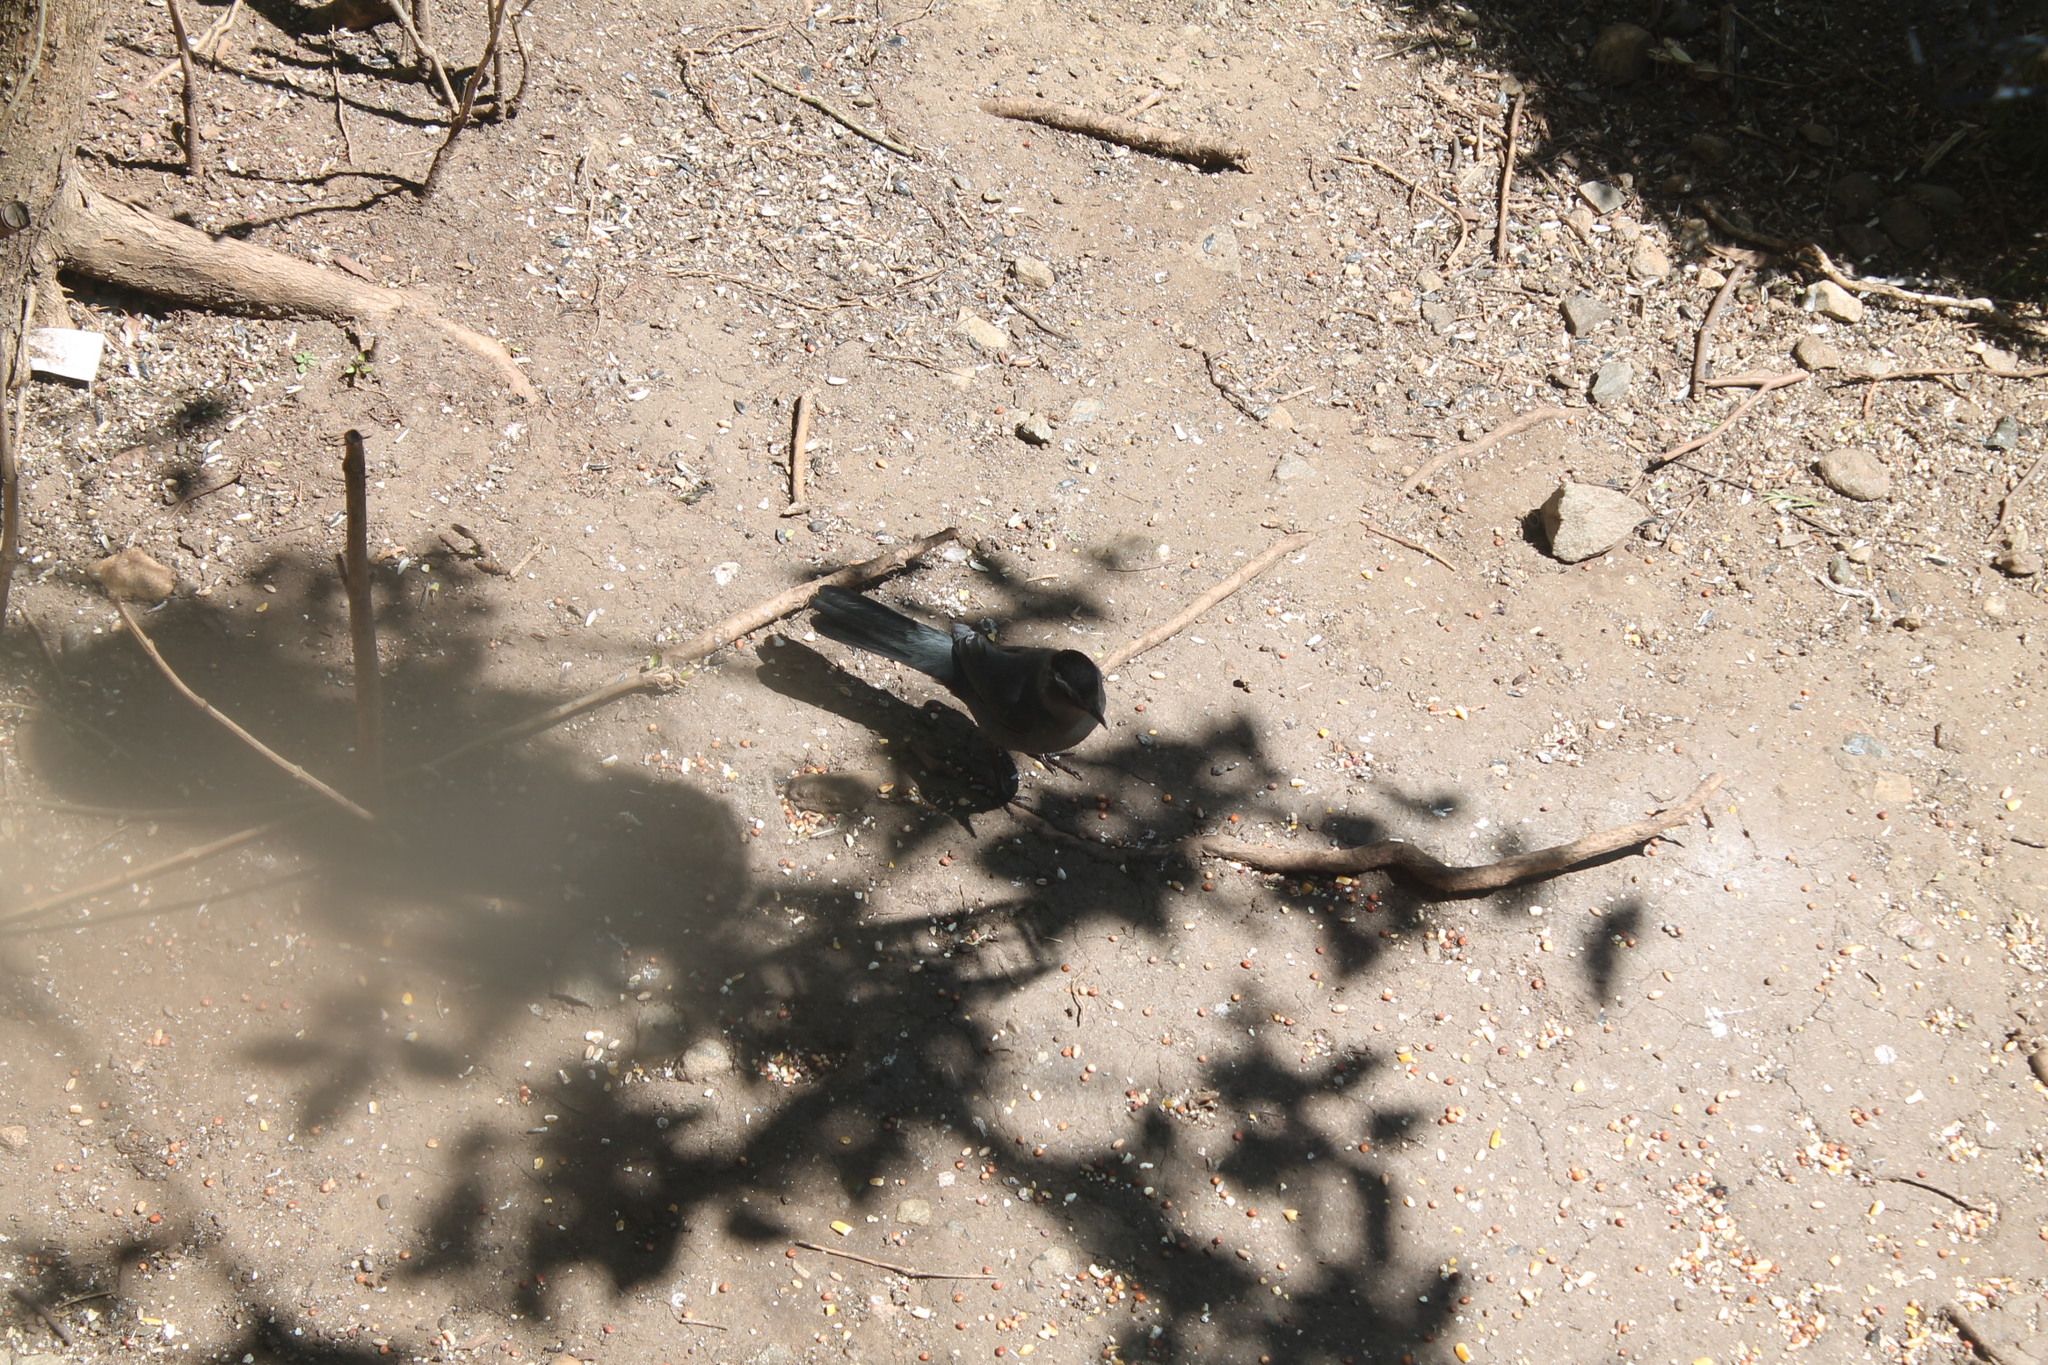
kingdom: Animalia
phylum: Chordata
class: Aves
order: Passeriformes
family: Mimidae
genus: Dumetella
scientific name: Dumetella carolinensis
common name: Gray catbird
